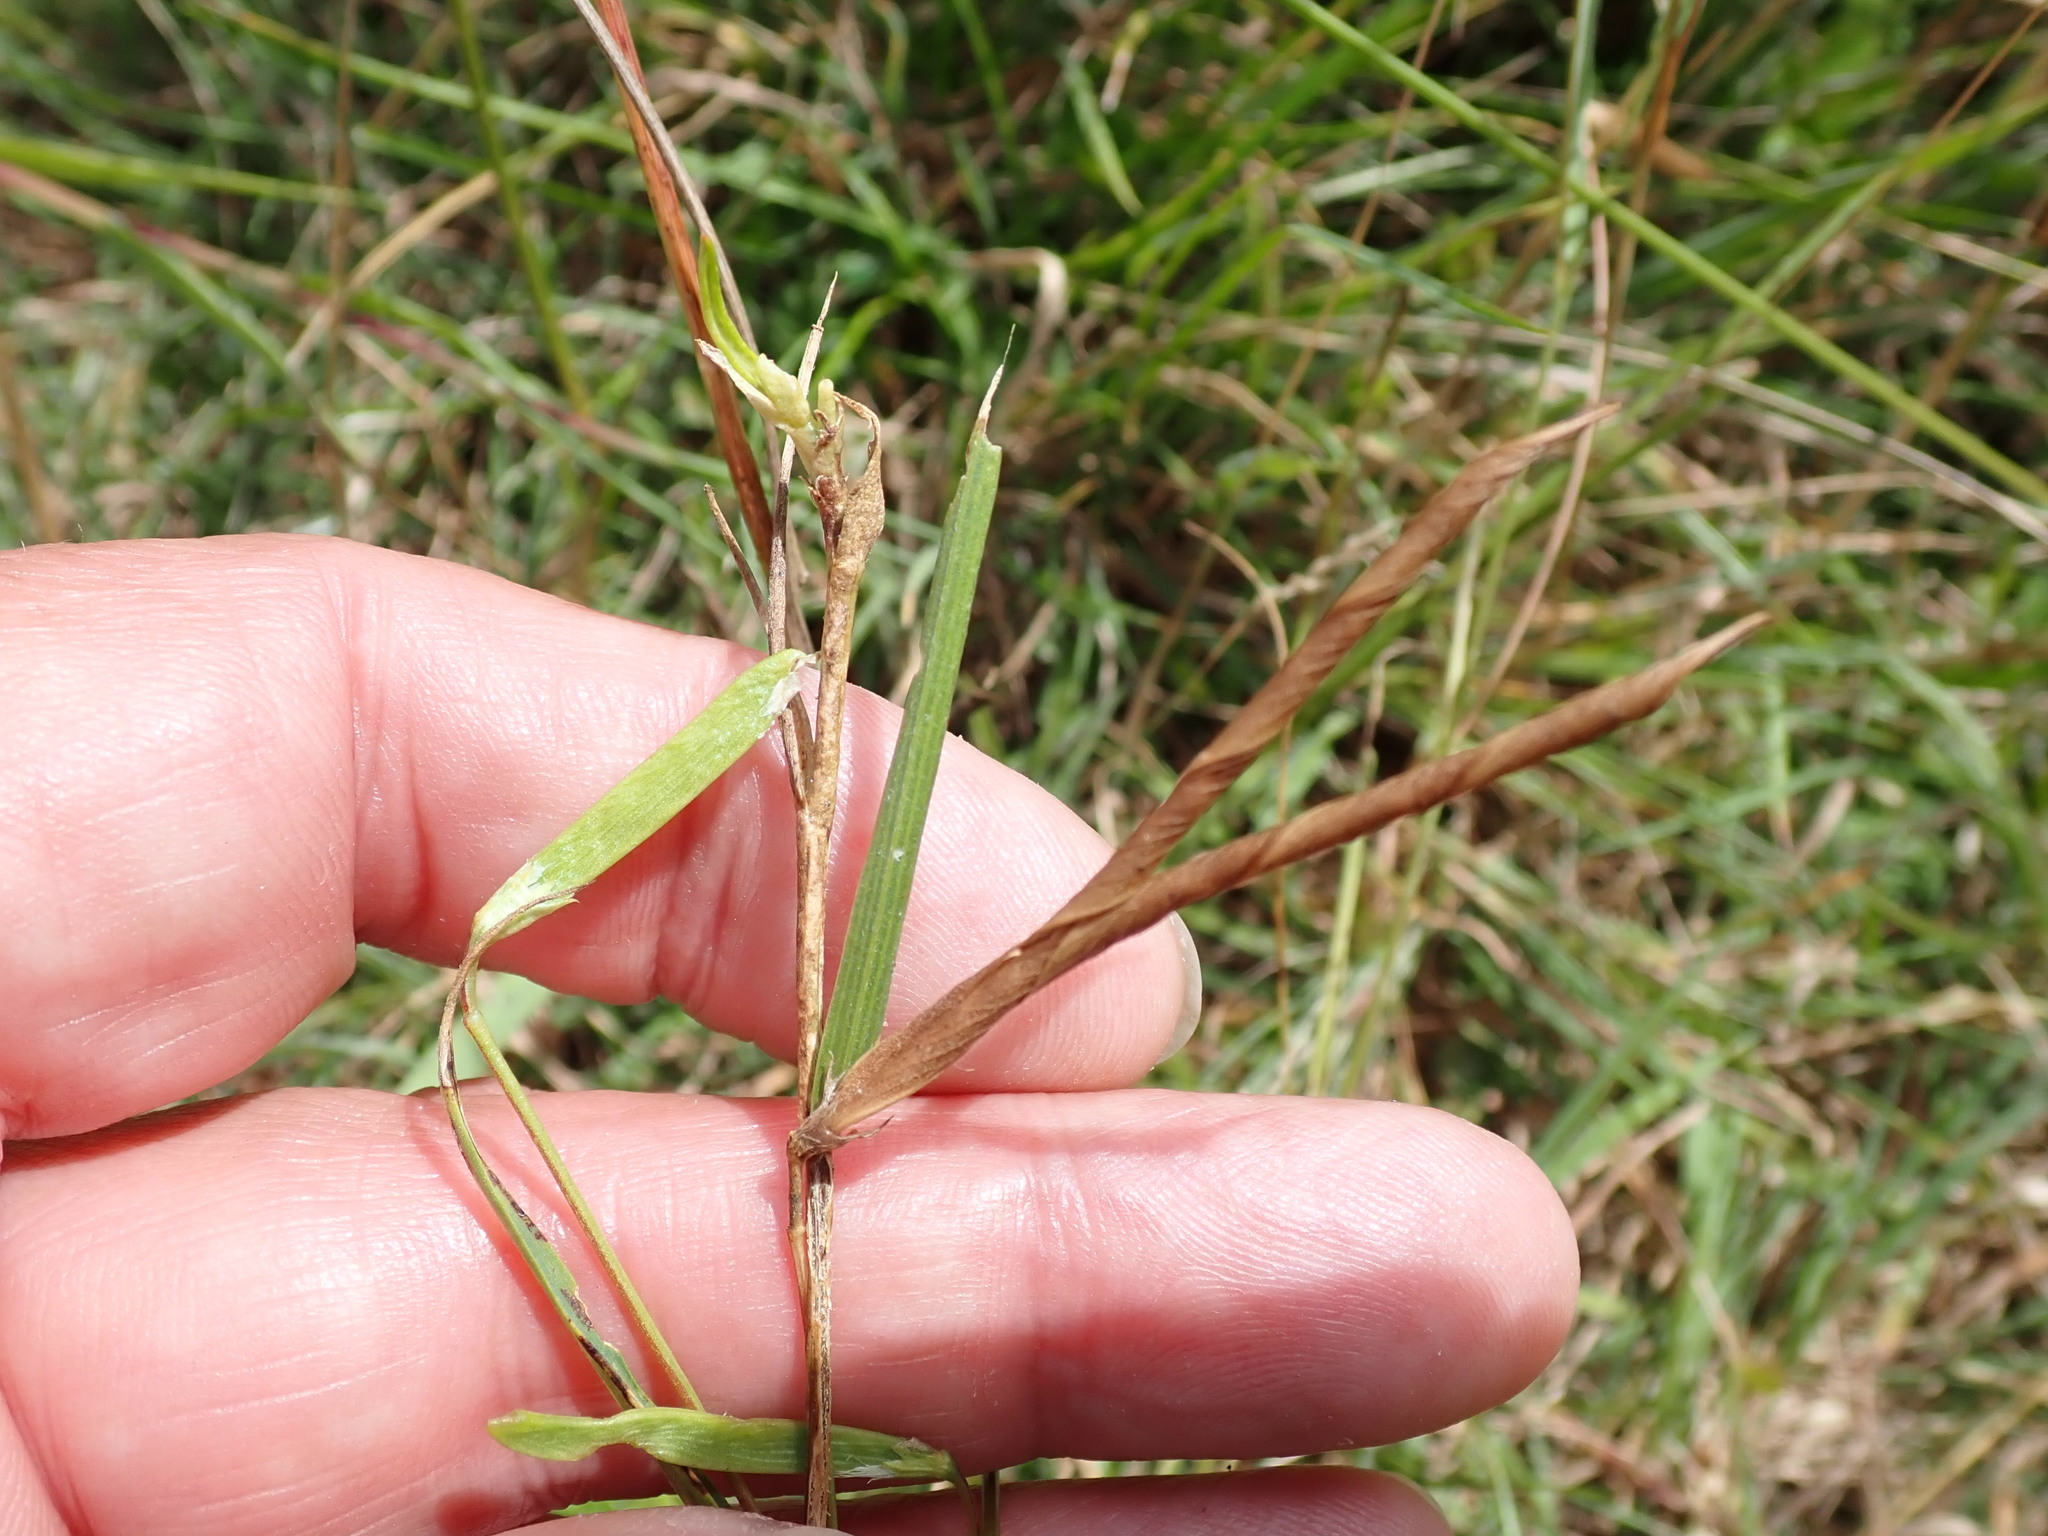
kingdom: Plantae
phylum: Tracheophyta
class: Magnoliopsida
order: Fabales
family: Fabaceae
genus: Vicia
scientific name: Vicia sativa
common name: Garden vetch
